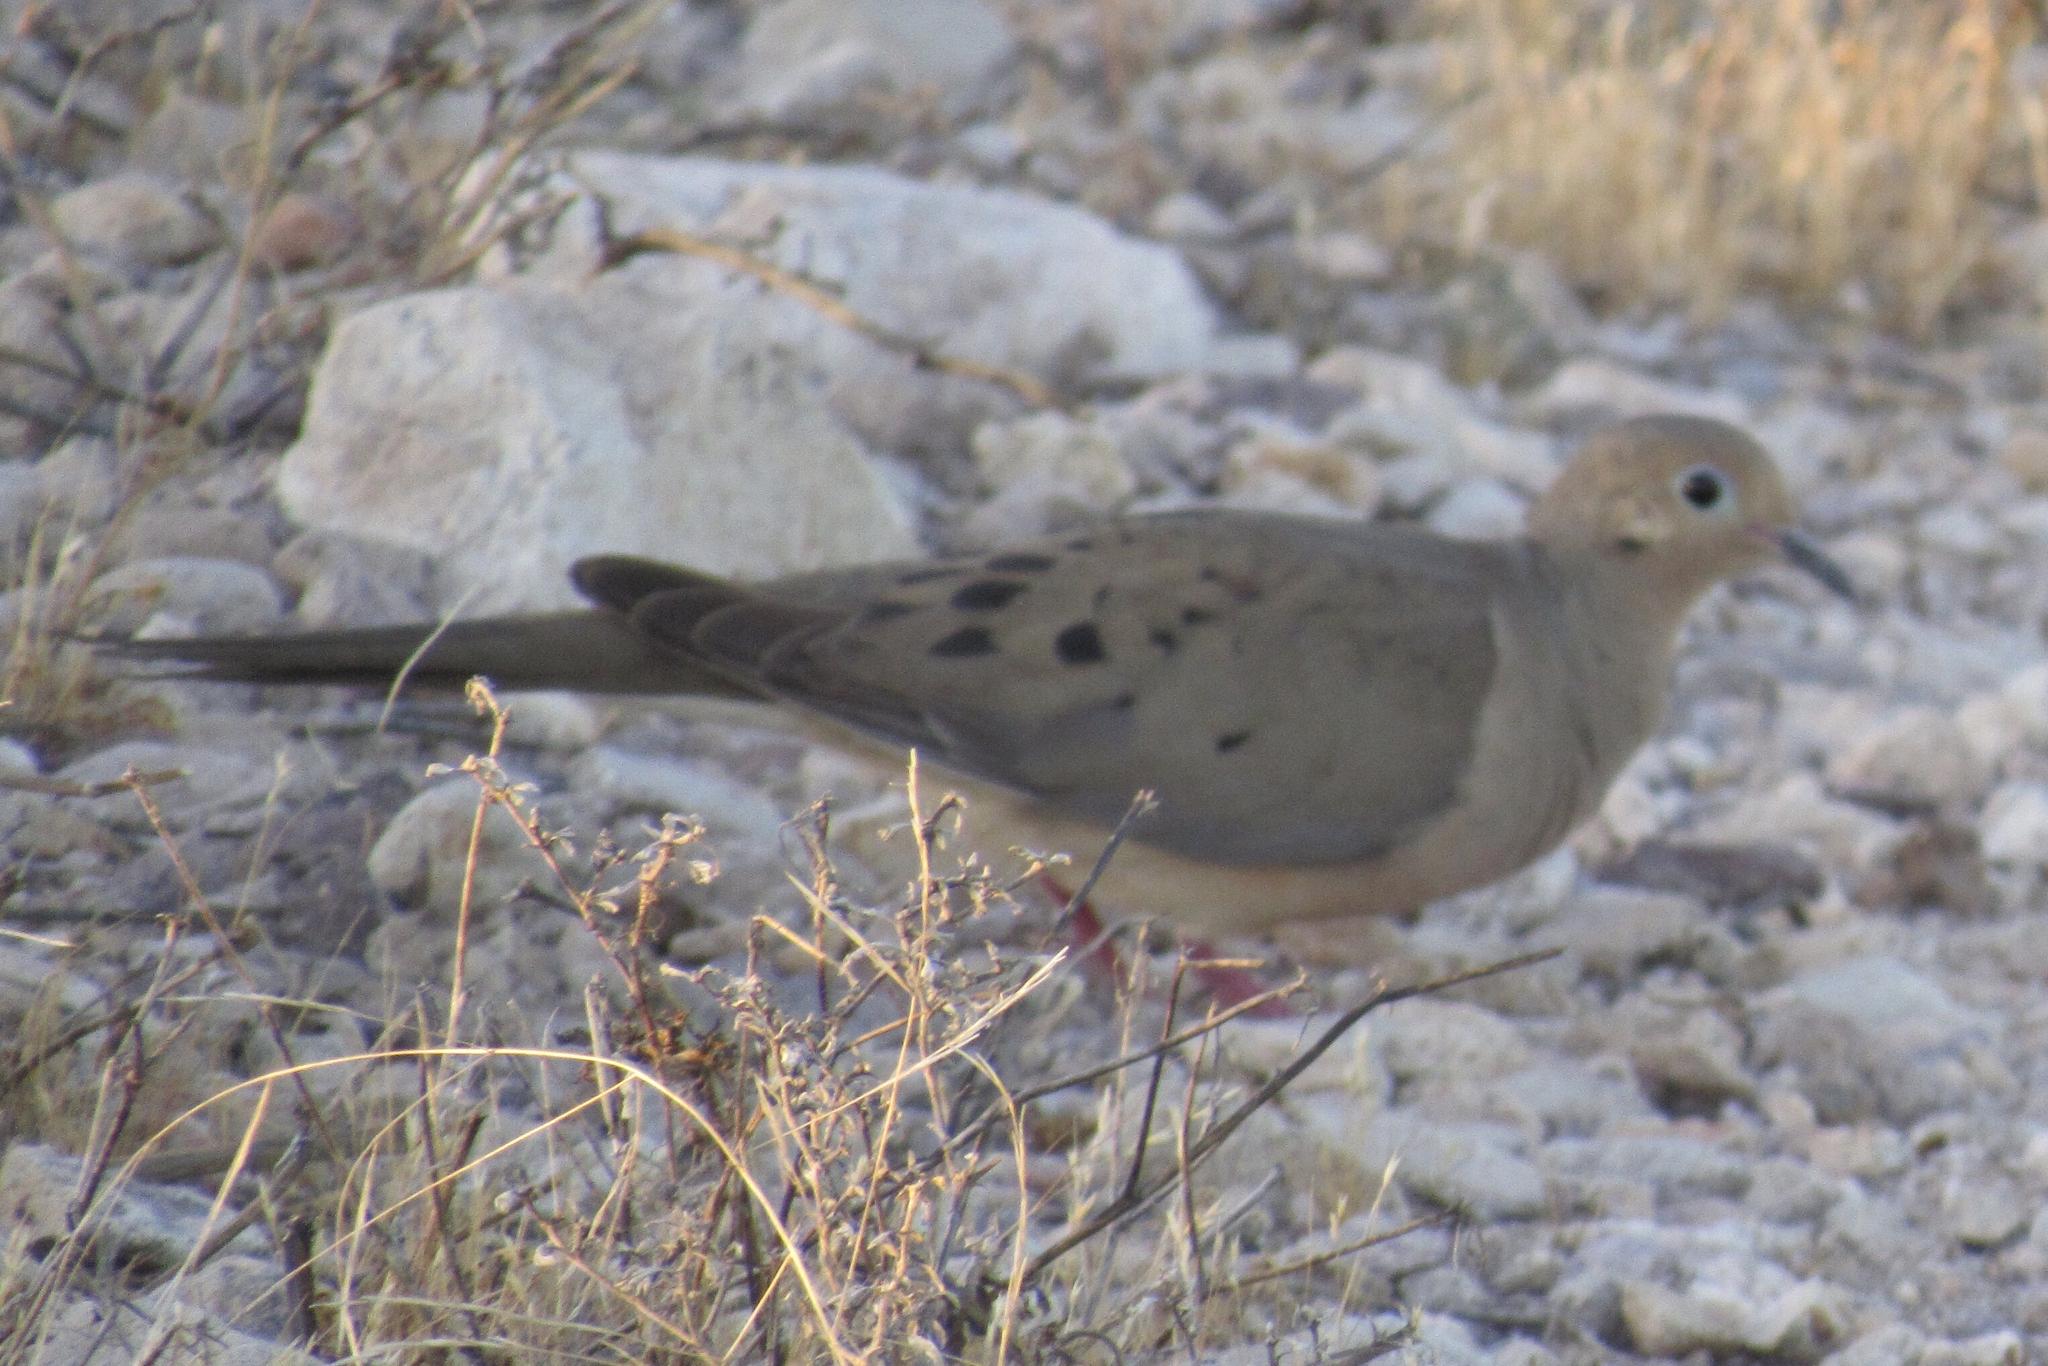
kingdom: Animalia
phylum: Chordata
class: Aves
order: Columbiformes
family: Columbidae
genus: Zenaida
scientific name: Zenaida macroura
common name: Mourning dove
